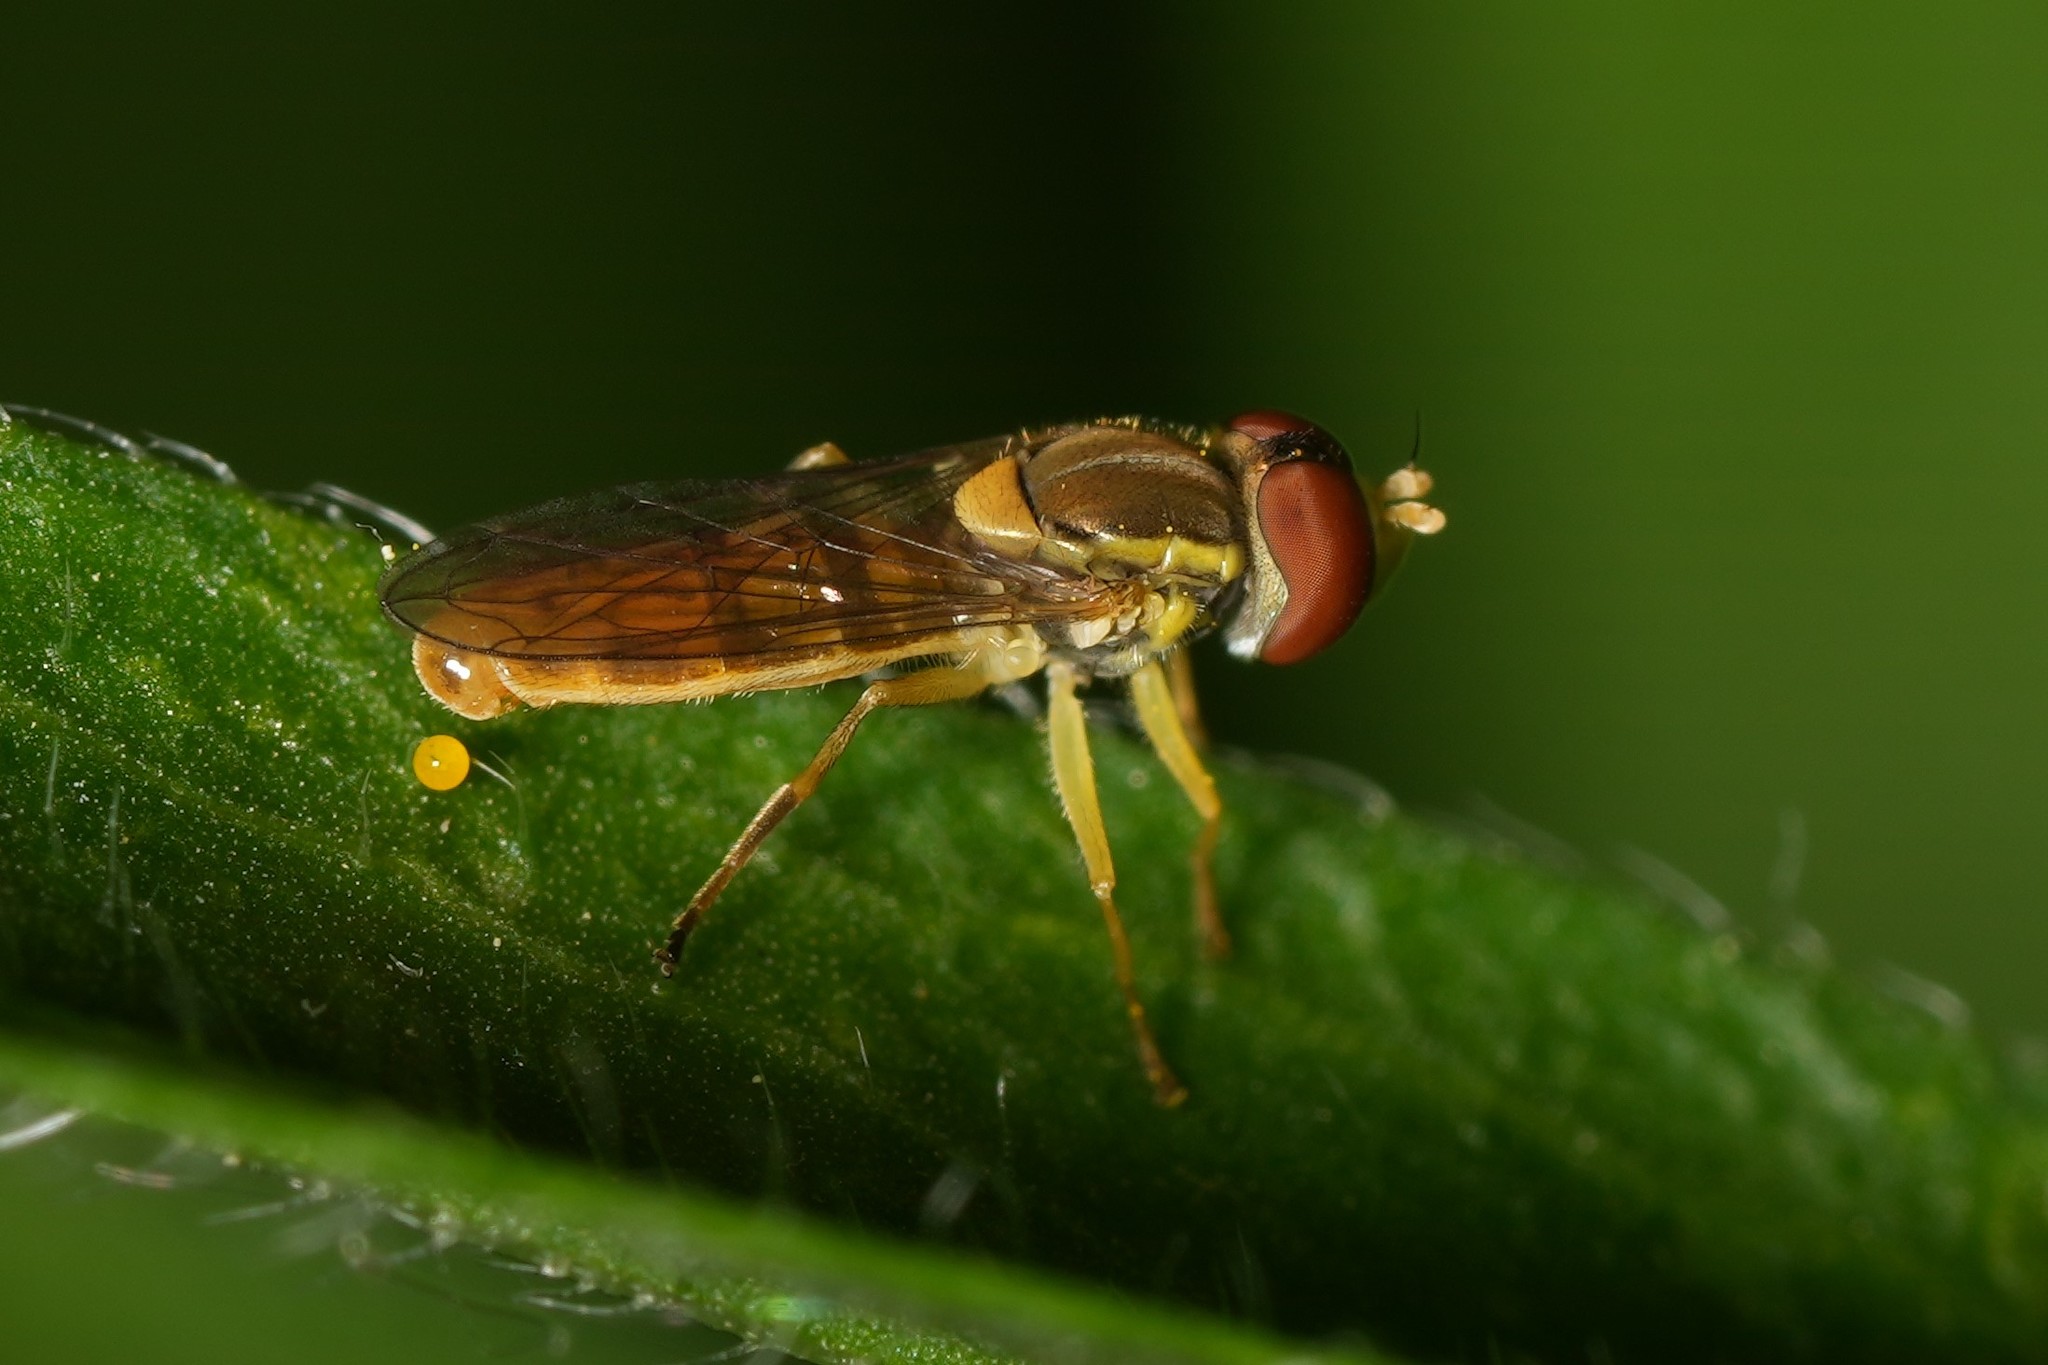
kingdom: Animalia
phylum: Arthropoda
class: Insecta
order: Diptera
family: Syrphidae
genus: Toxomerus
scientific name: Toxomerus marginatus
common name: Syrphid fly
